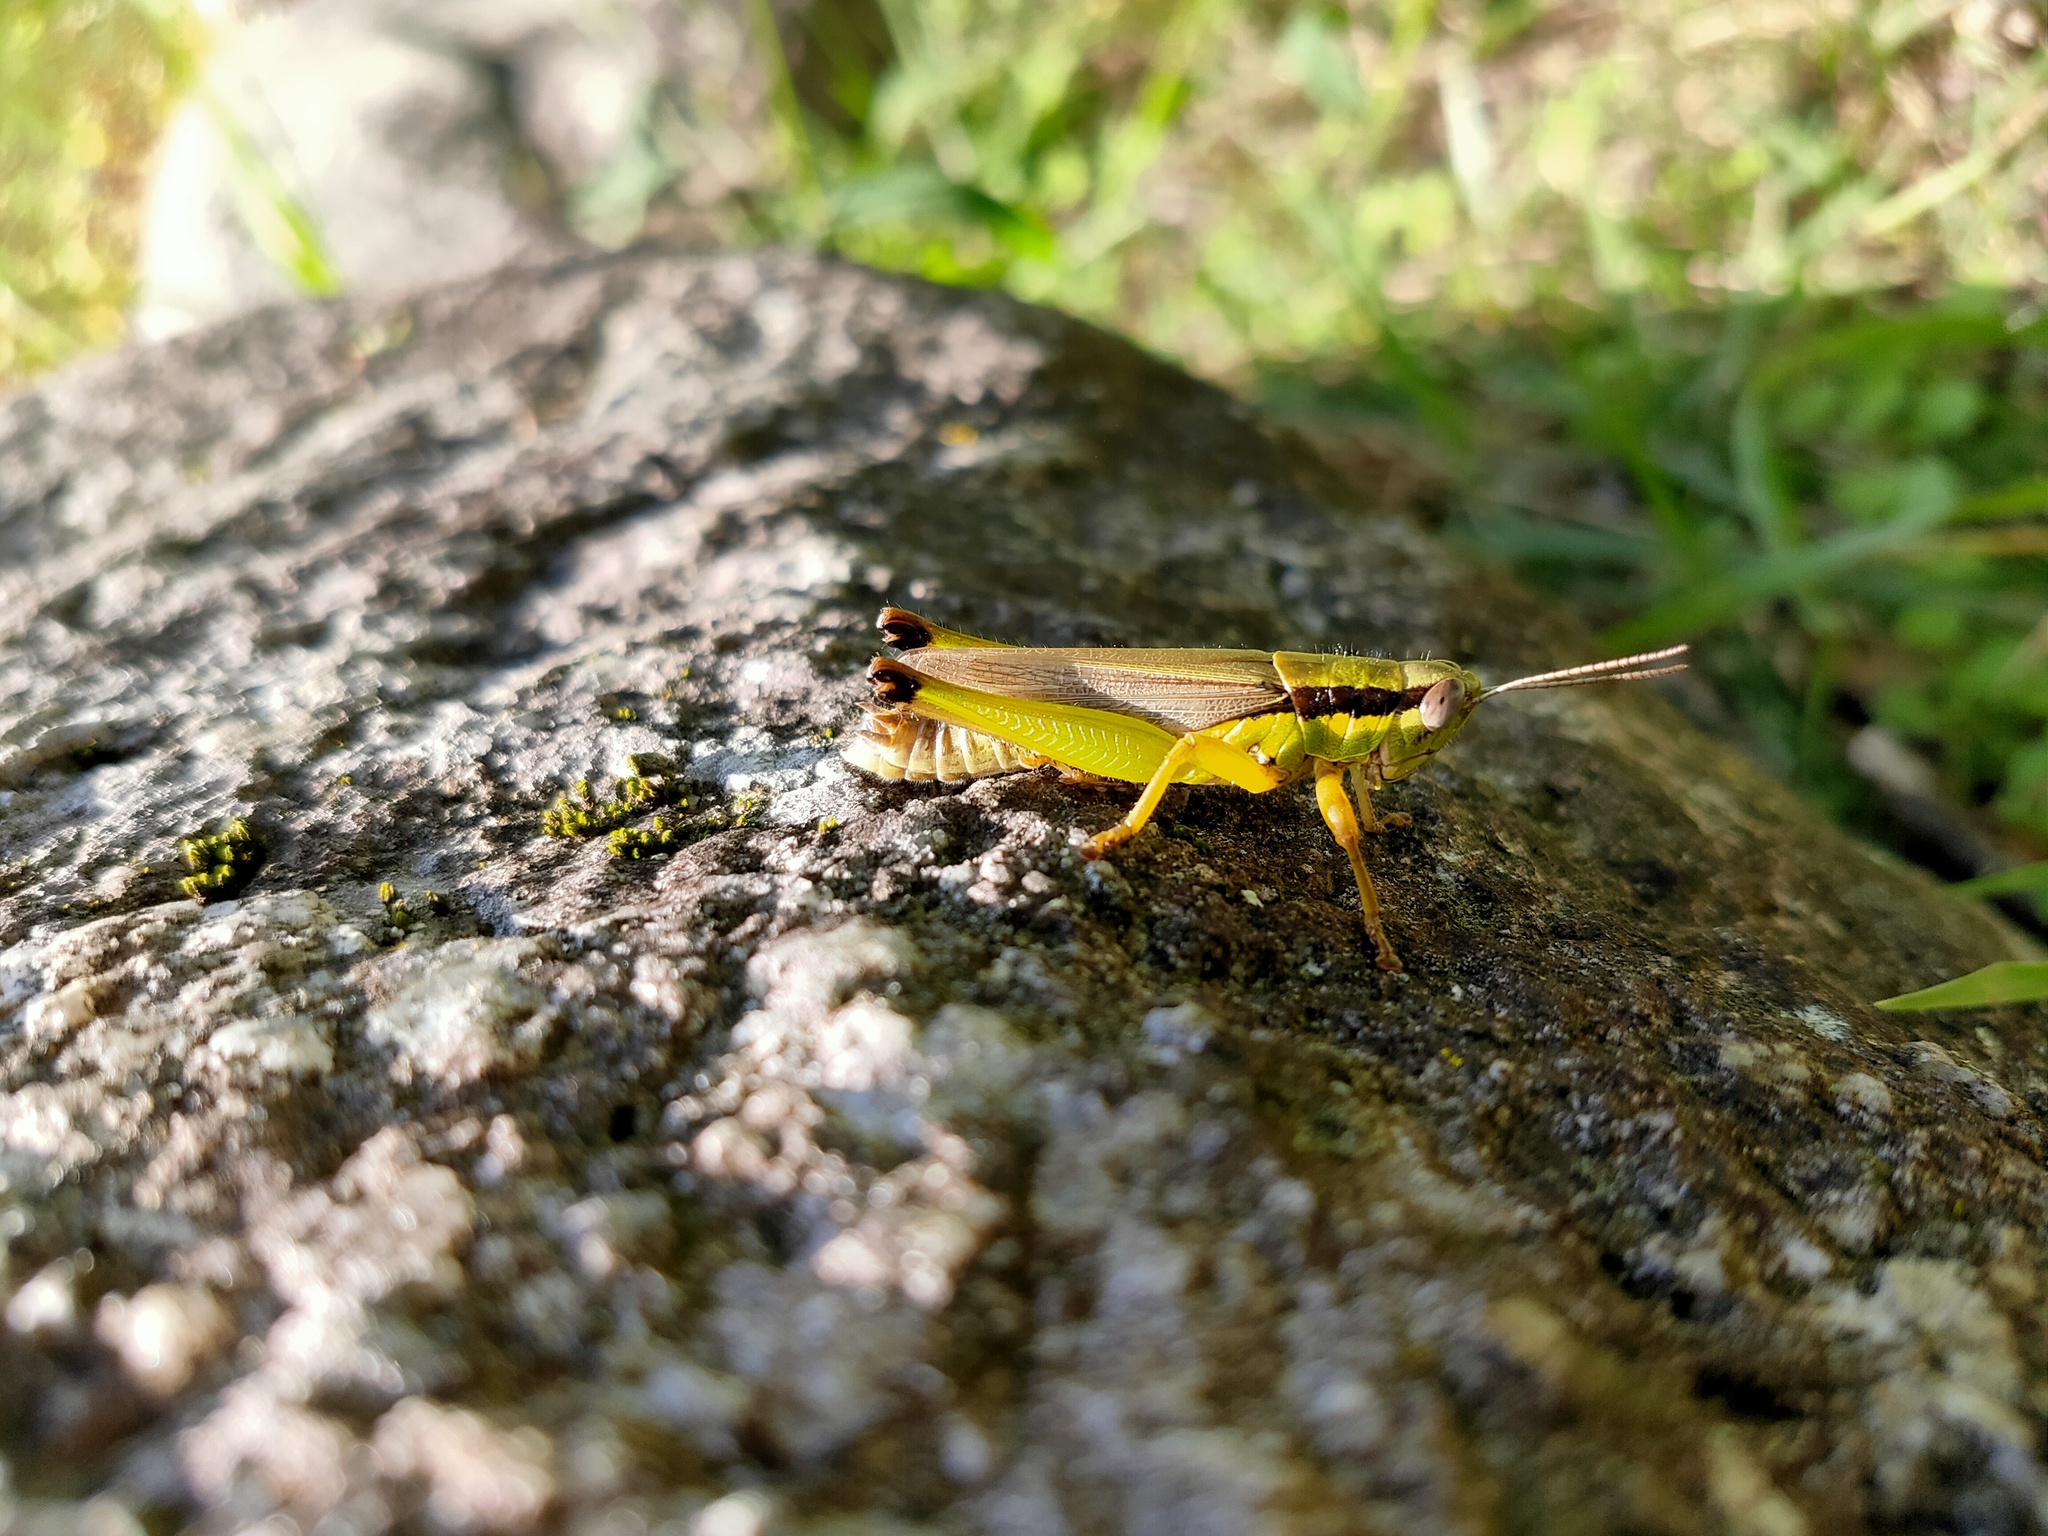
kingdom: Animalia
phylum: Arthropoda
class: Insecta
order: Orthoptera
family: Acrididae
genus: Oxya
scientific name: Oxya yezoensis
